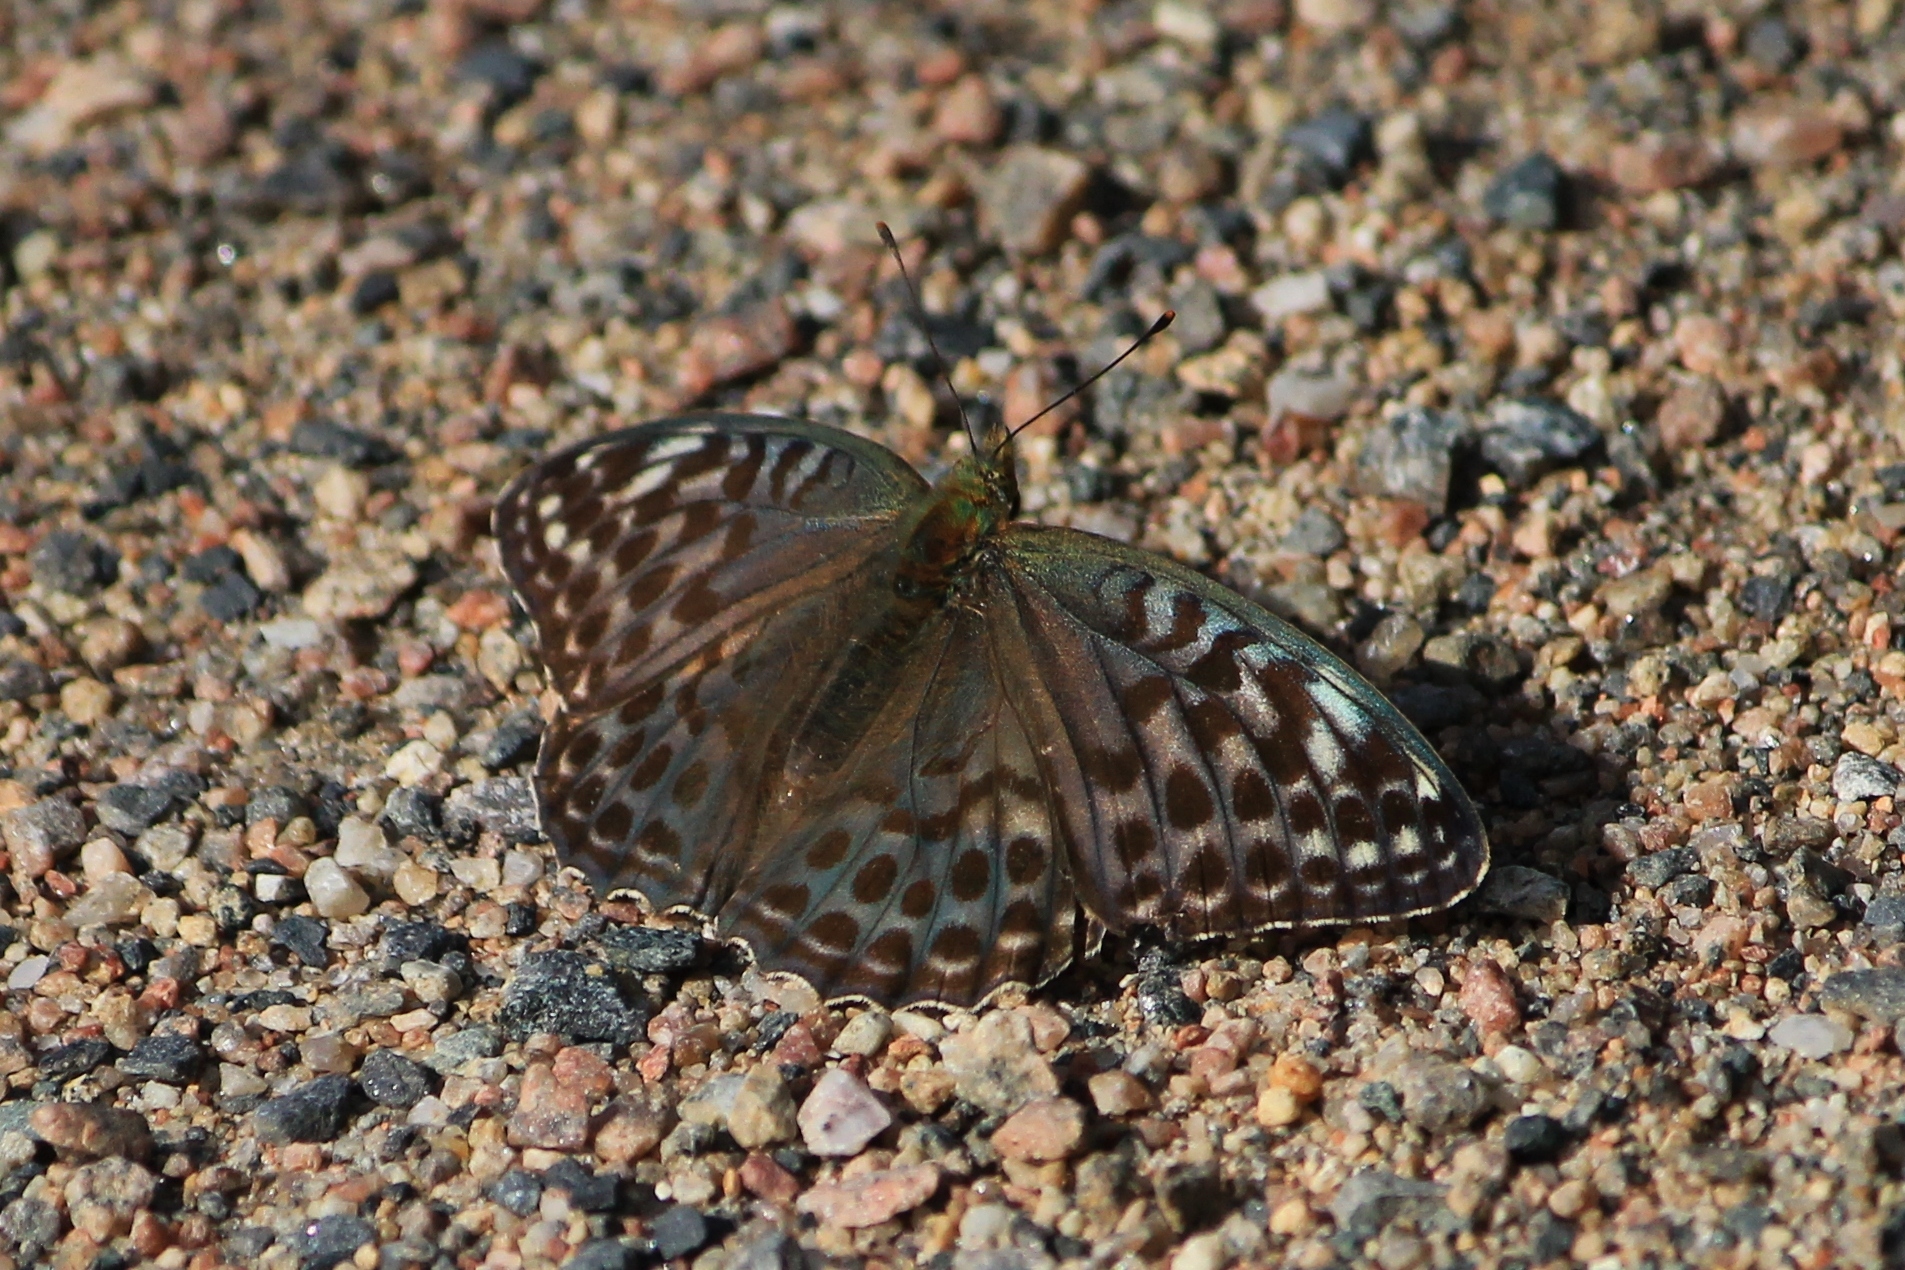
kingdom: Animalia
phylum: Arthropoda
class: Insecta
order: Lepidoptera
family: Nymphalidae
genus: Argynnis
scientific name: Argynnis paphia
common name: Silver-washed fritillary
